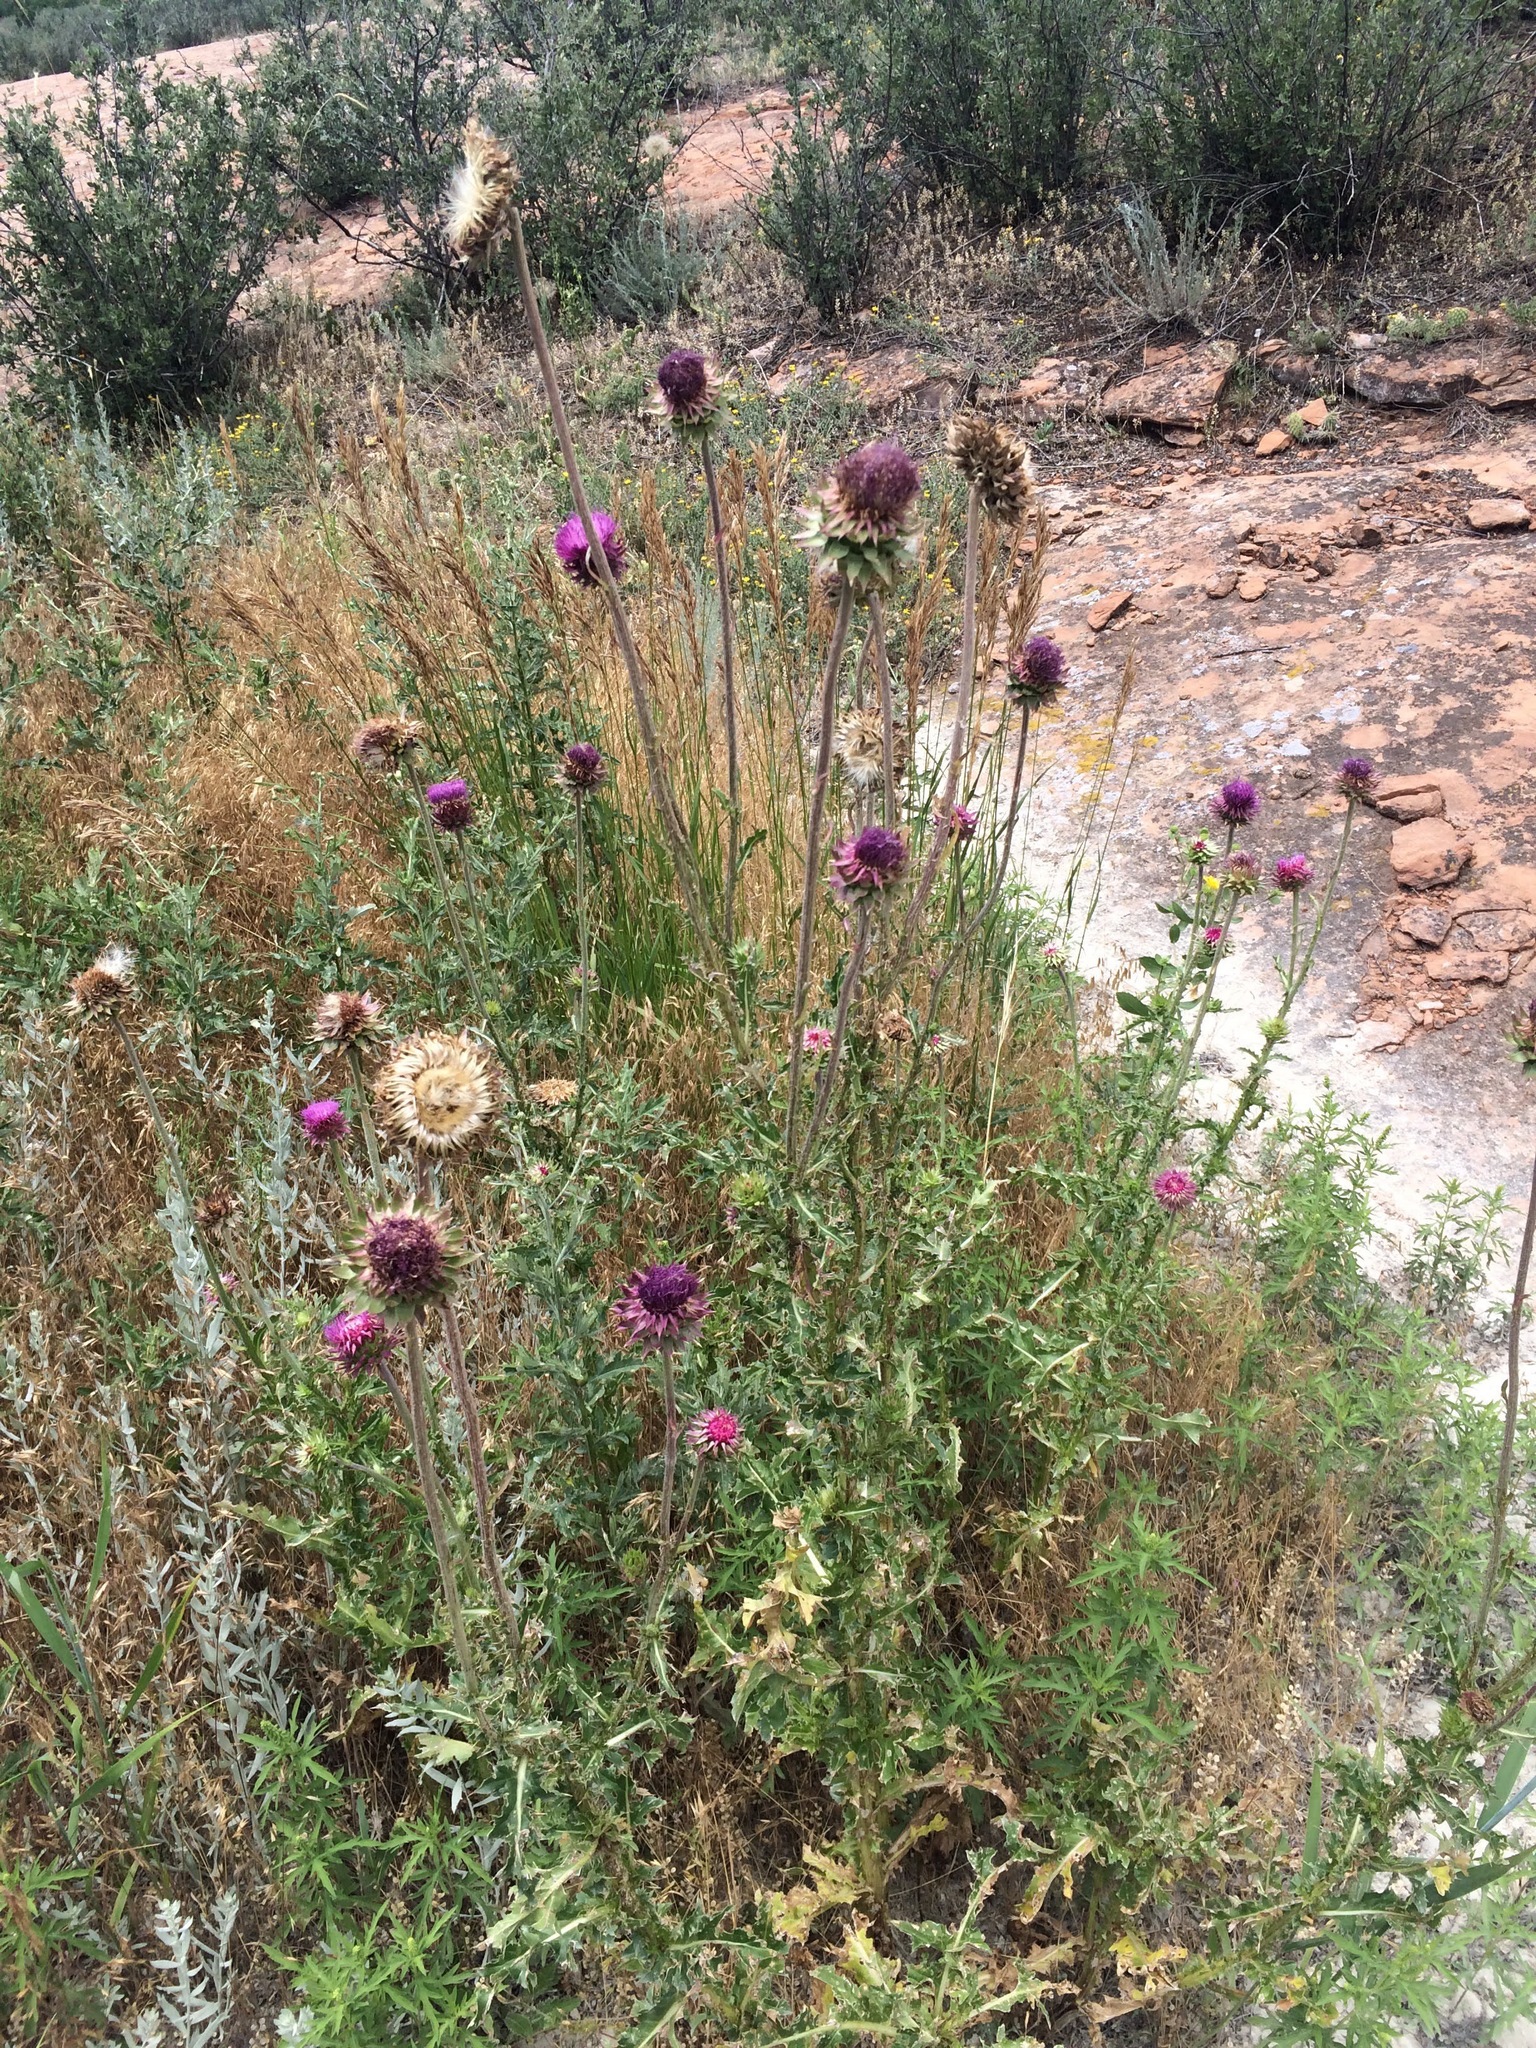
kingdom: Plantae
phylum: Tracheophyta
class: Magnoliopsida
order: Asterales
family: Asteraceae
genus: Carduus
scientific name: Carduus nutans
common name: Musk thistle
